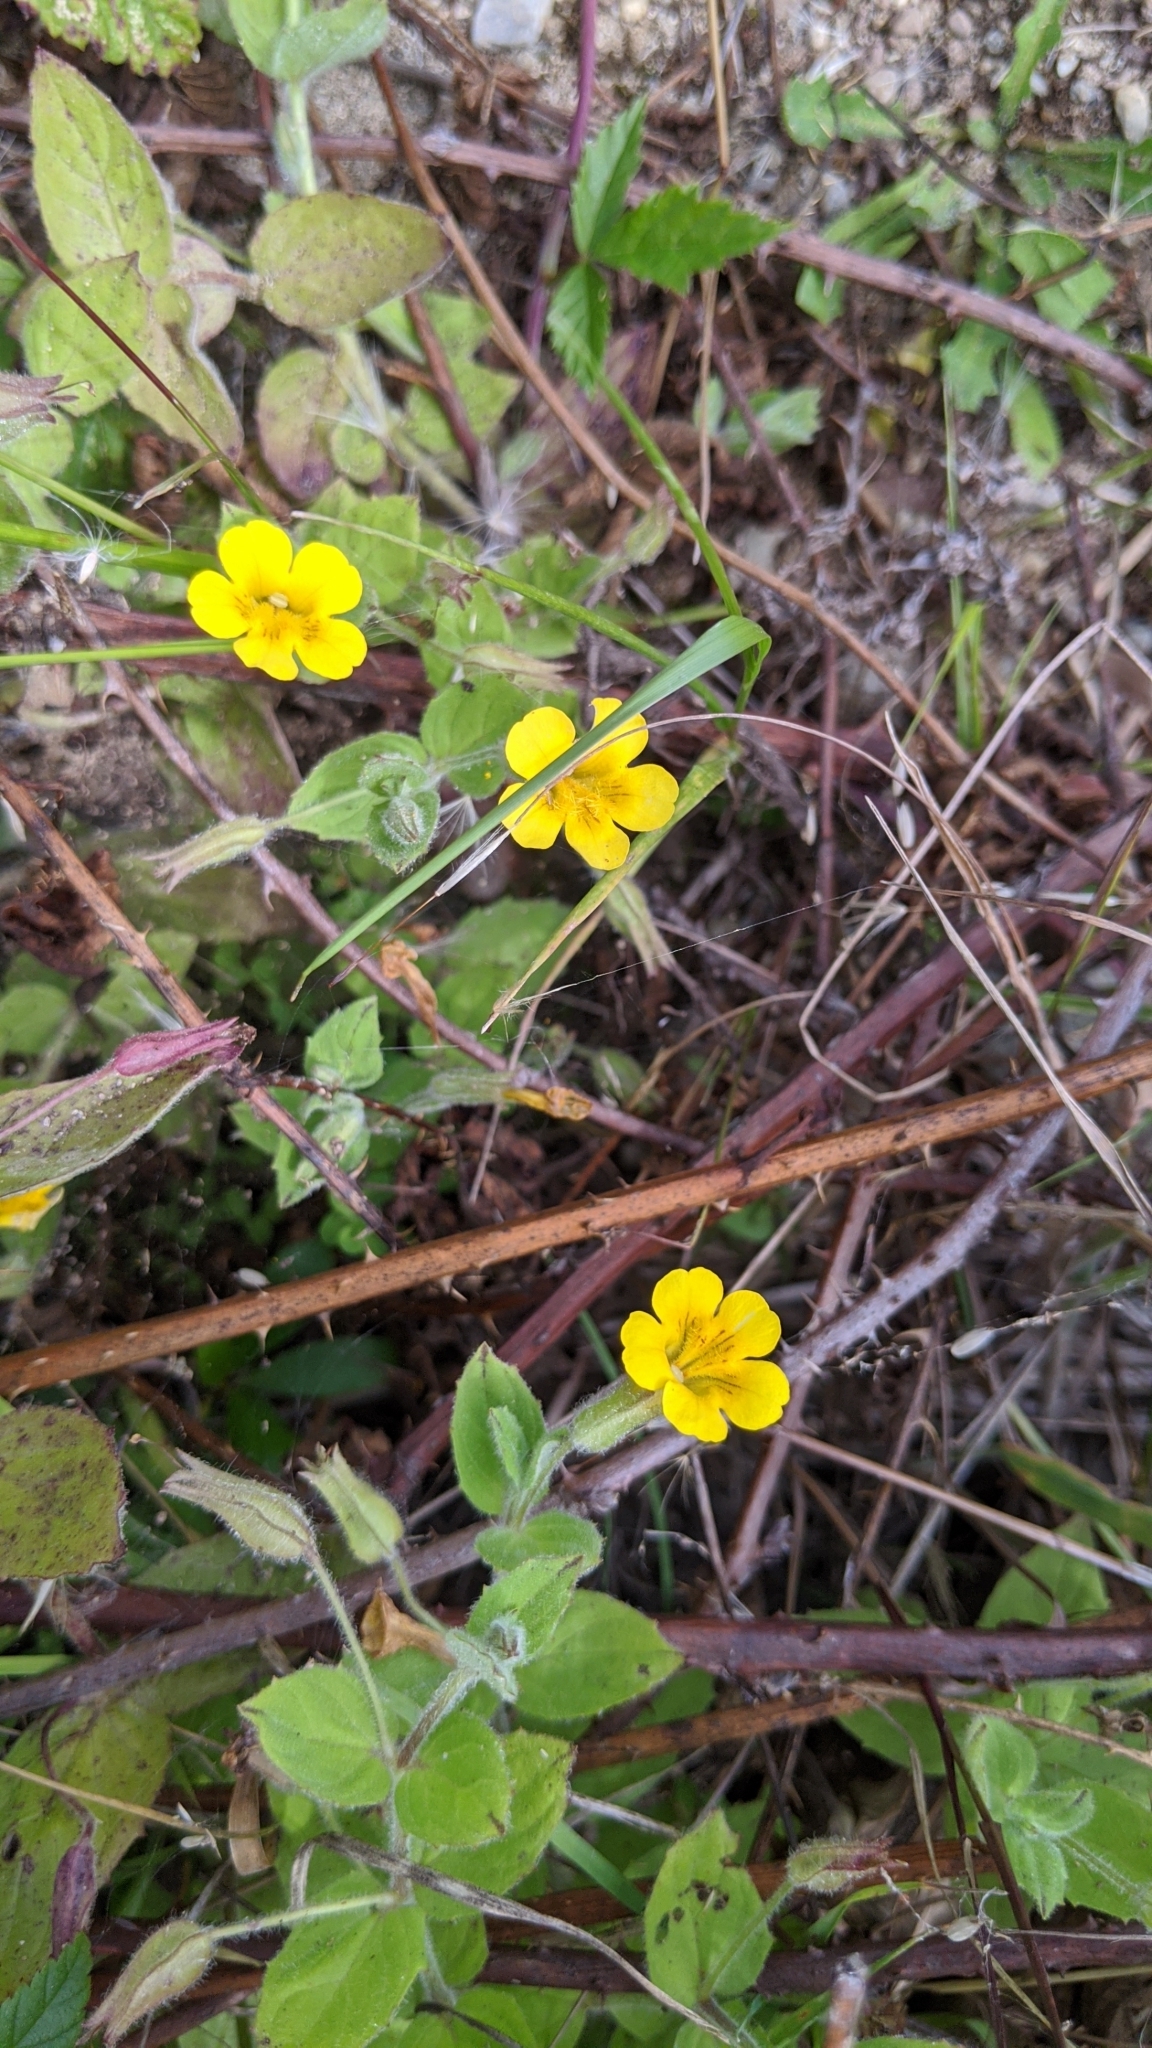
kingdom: Plantae
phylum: Tracheophyta
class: Magnoliopsida
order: Lamiales
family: Phrymaceae
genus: Erythranthe
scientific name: Erythranthe ptilota
